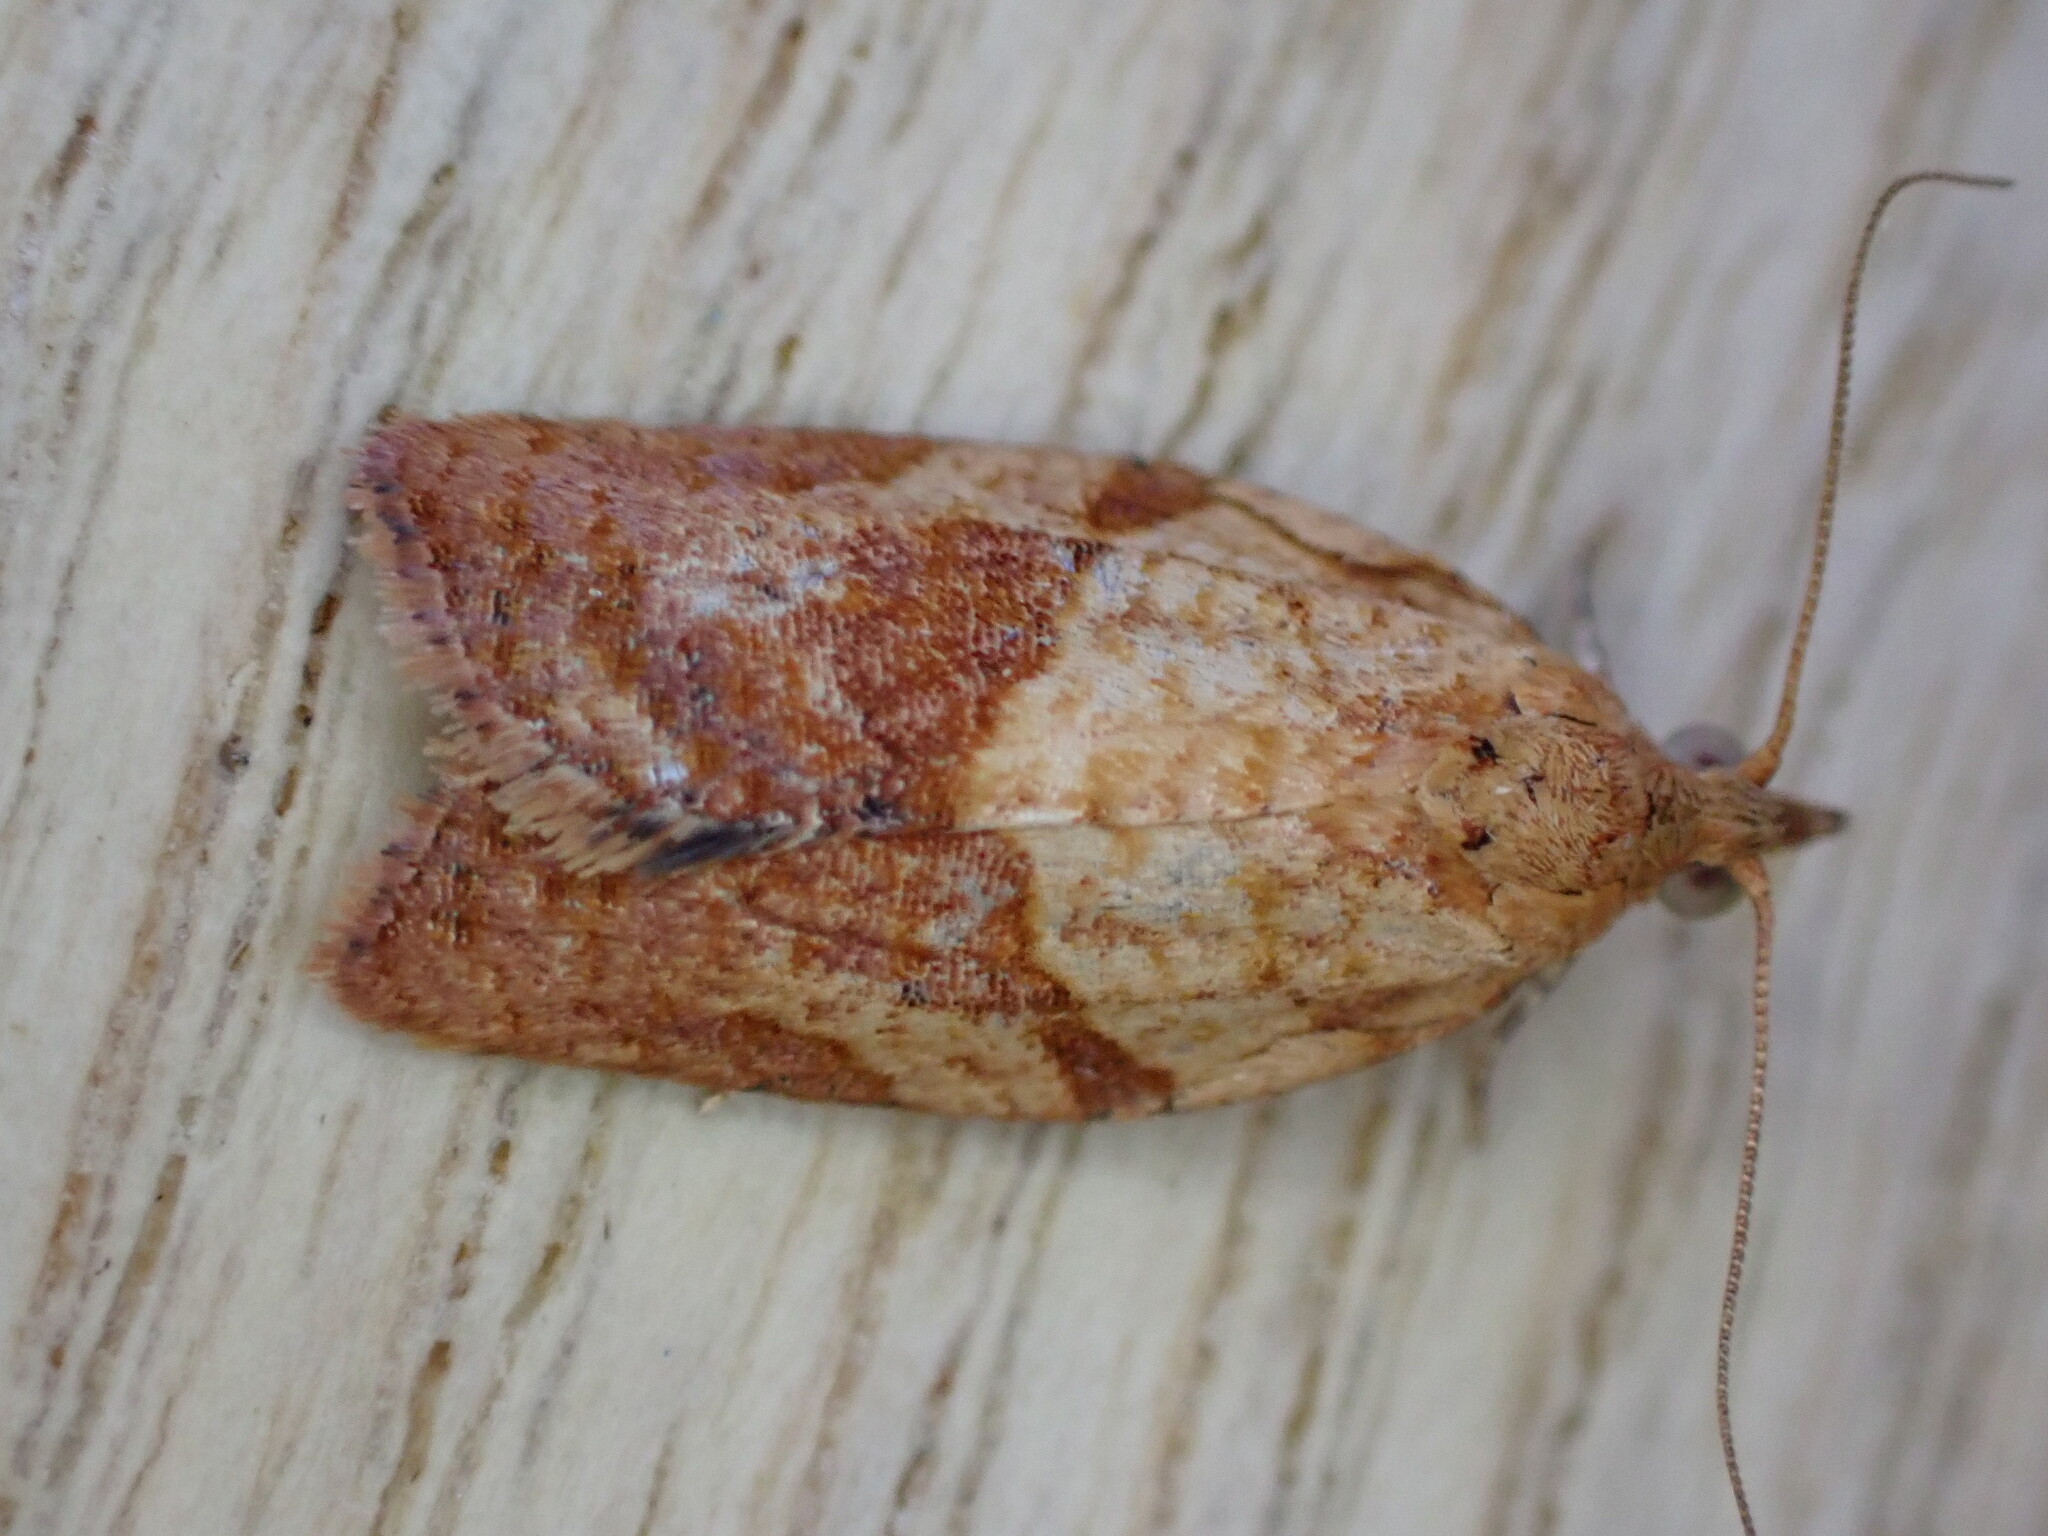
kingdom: Animalia
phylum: Arthropoda
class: Insecta
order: Lepidoptera
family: Tortricidae
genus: Epiphyas
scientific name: Epiphyas postvittana
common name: Light brown apple moth
